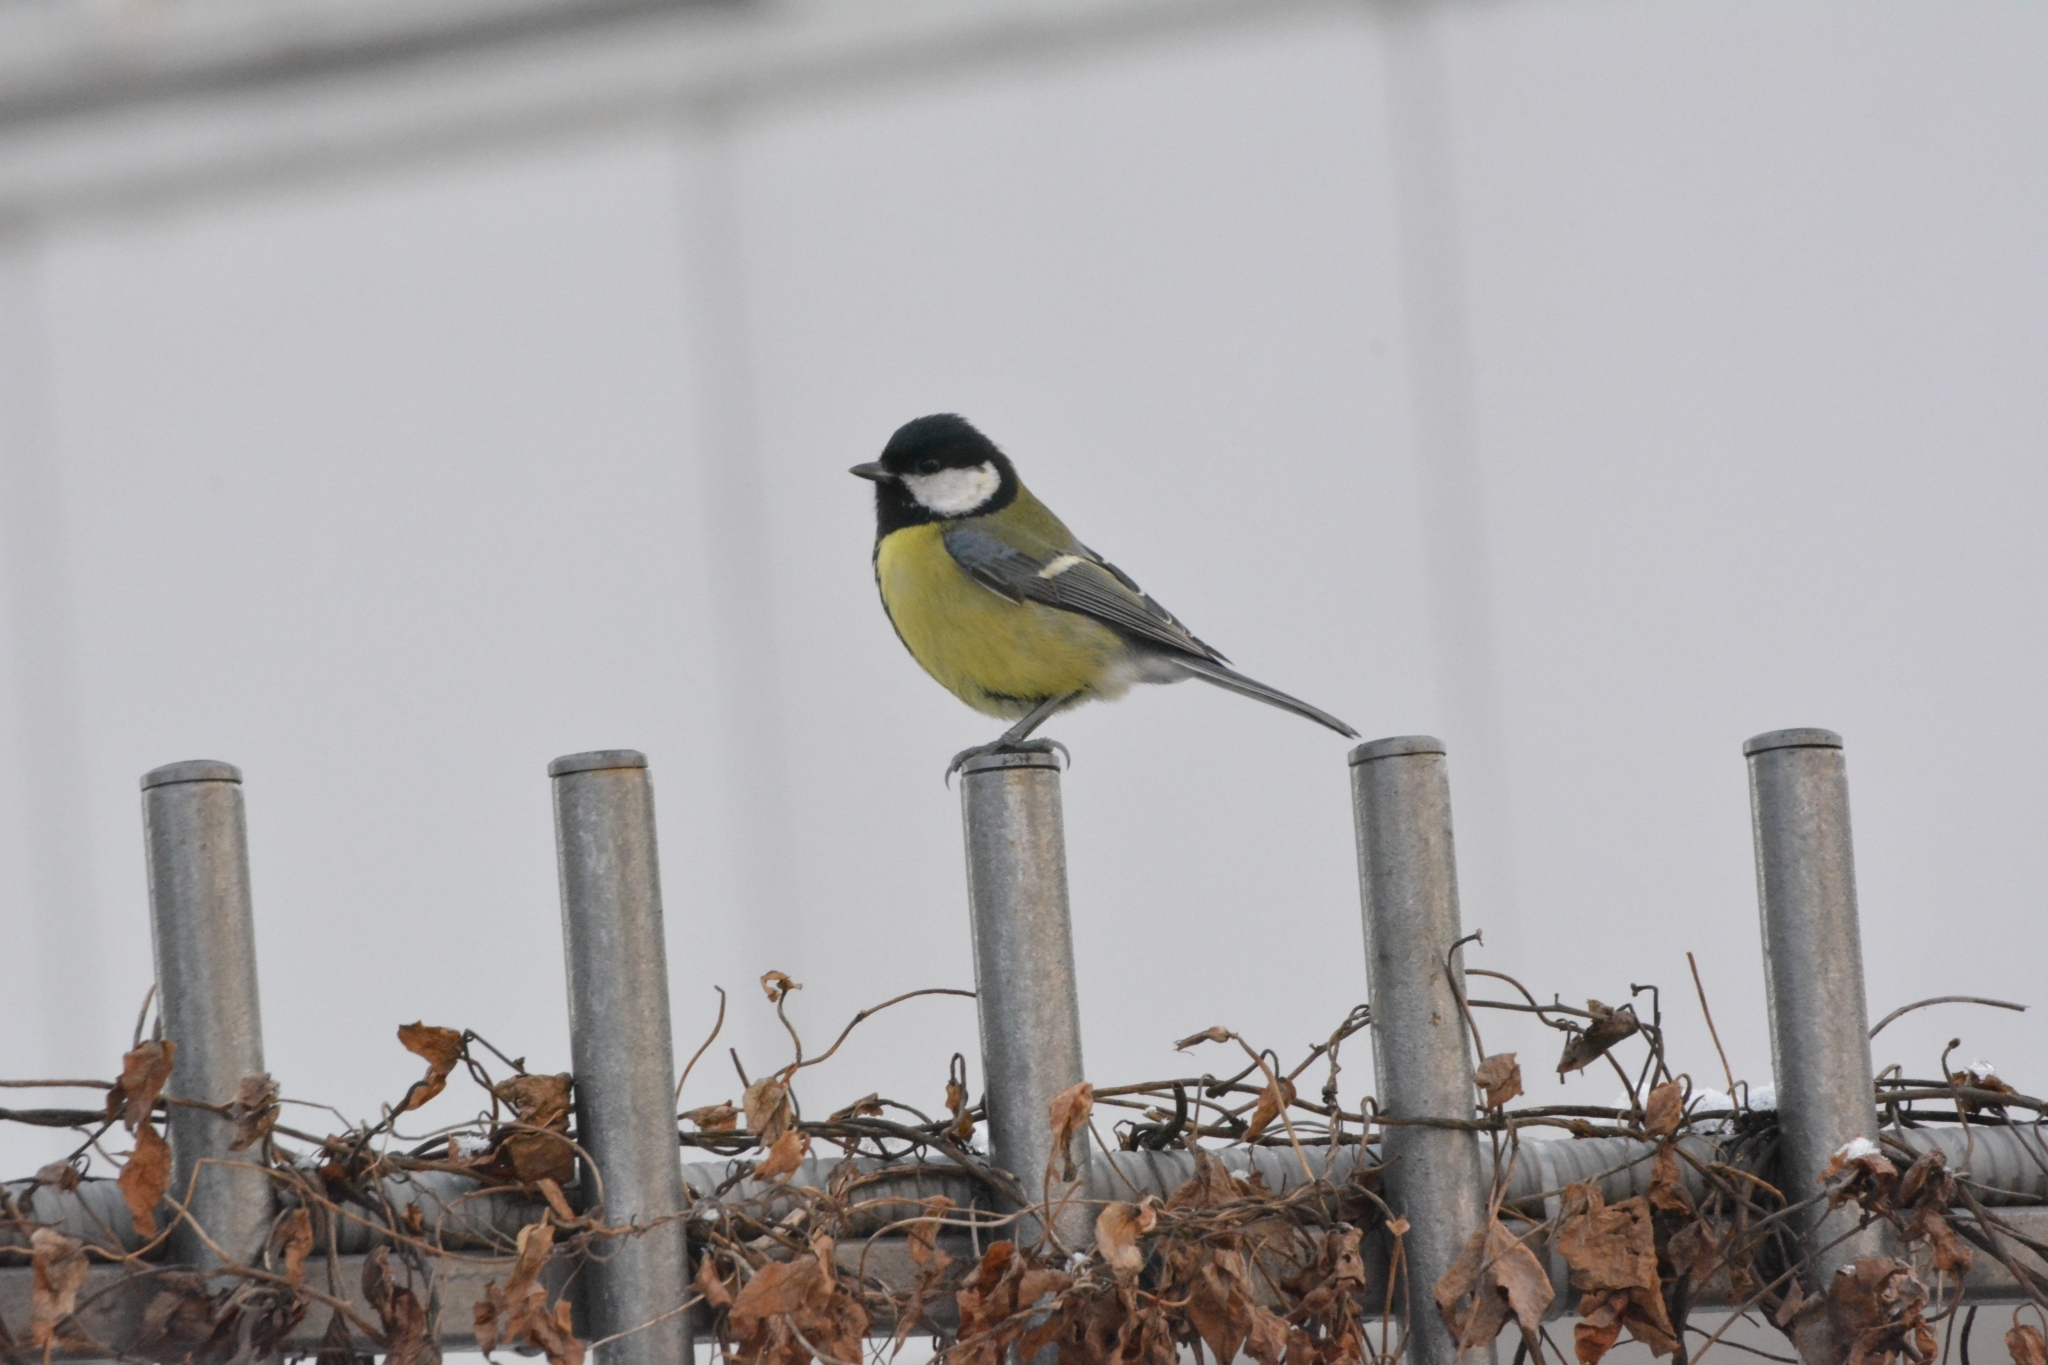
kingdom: Animalia
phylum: Chordata
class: Aves
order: Passeriformes
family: Paridae
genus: Parus
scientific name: Parus major
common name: Great tit
